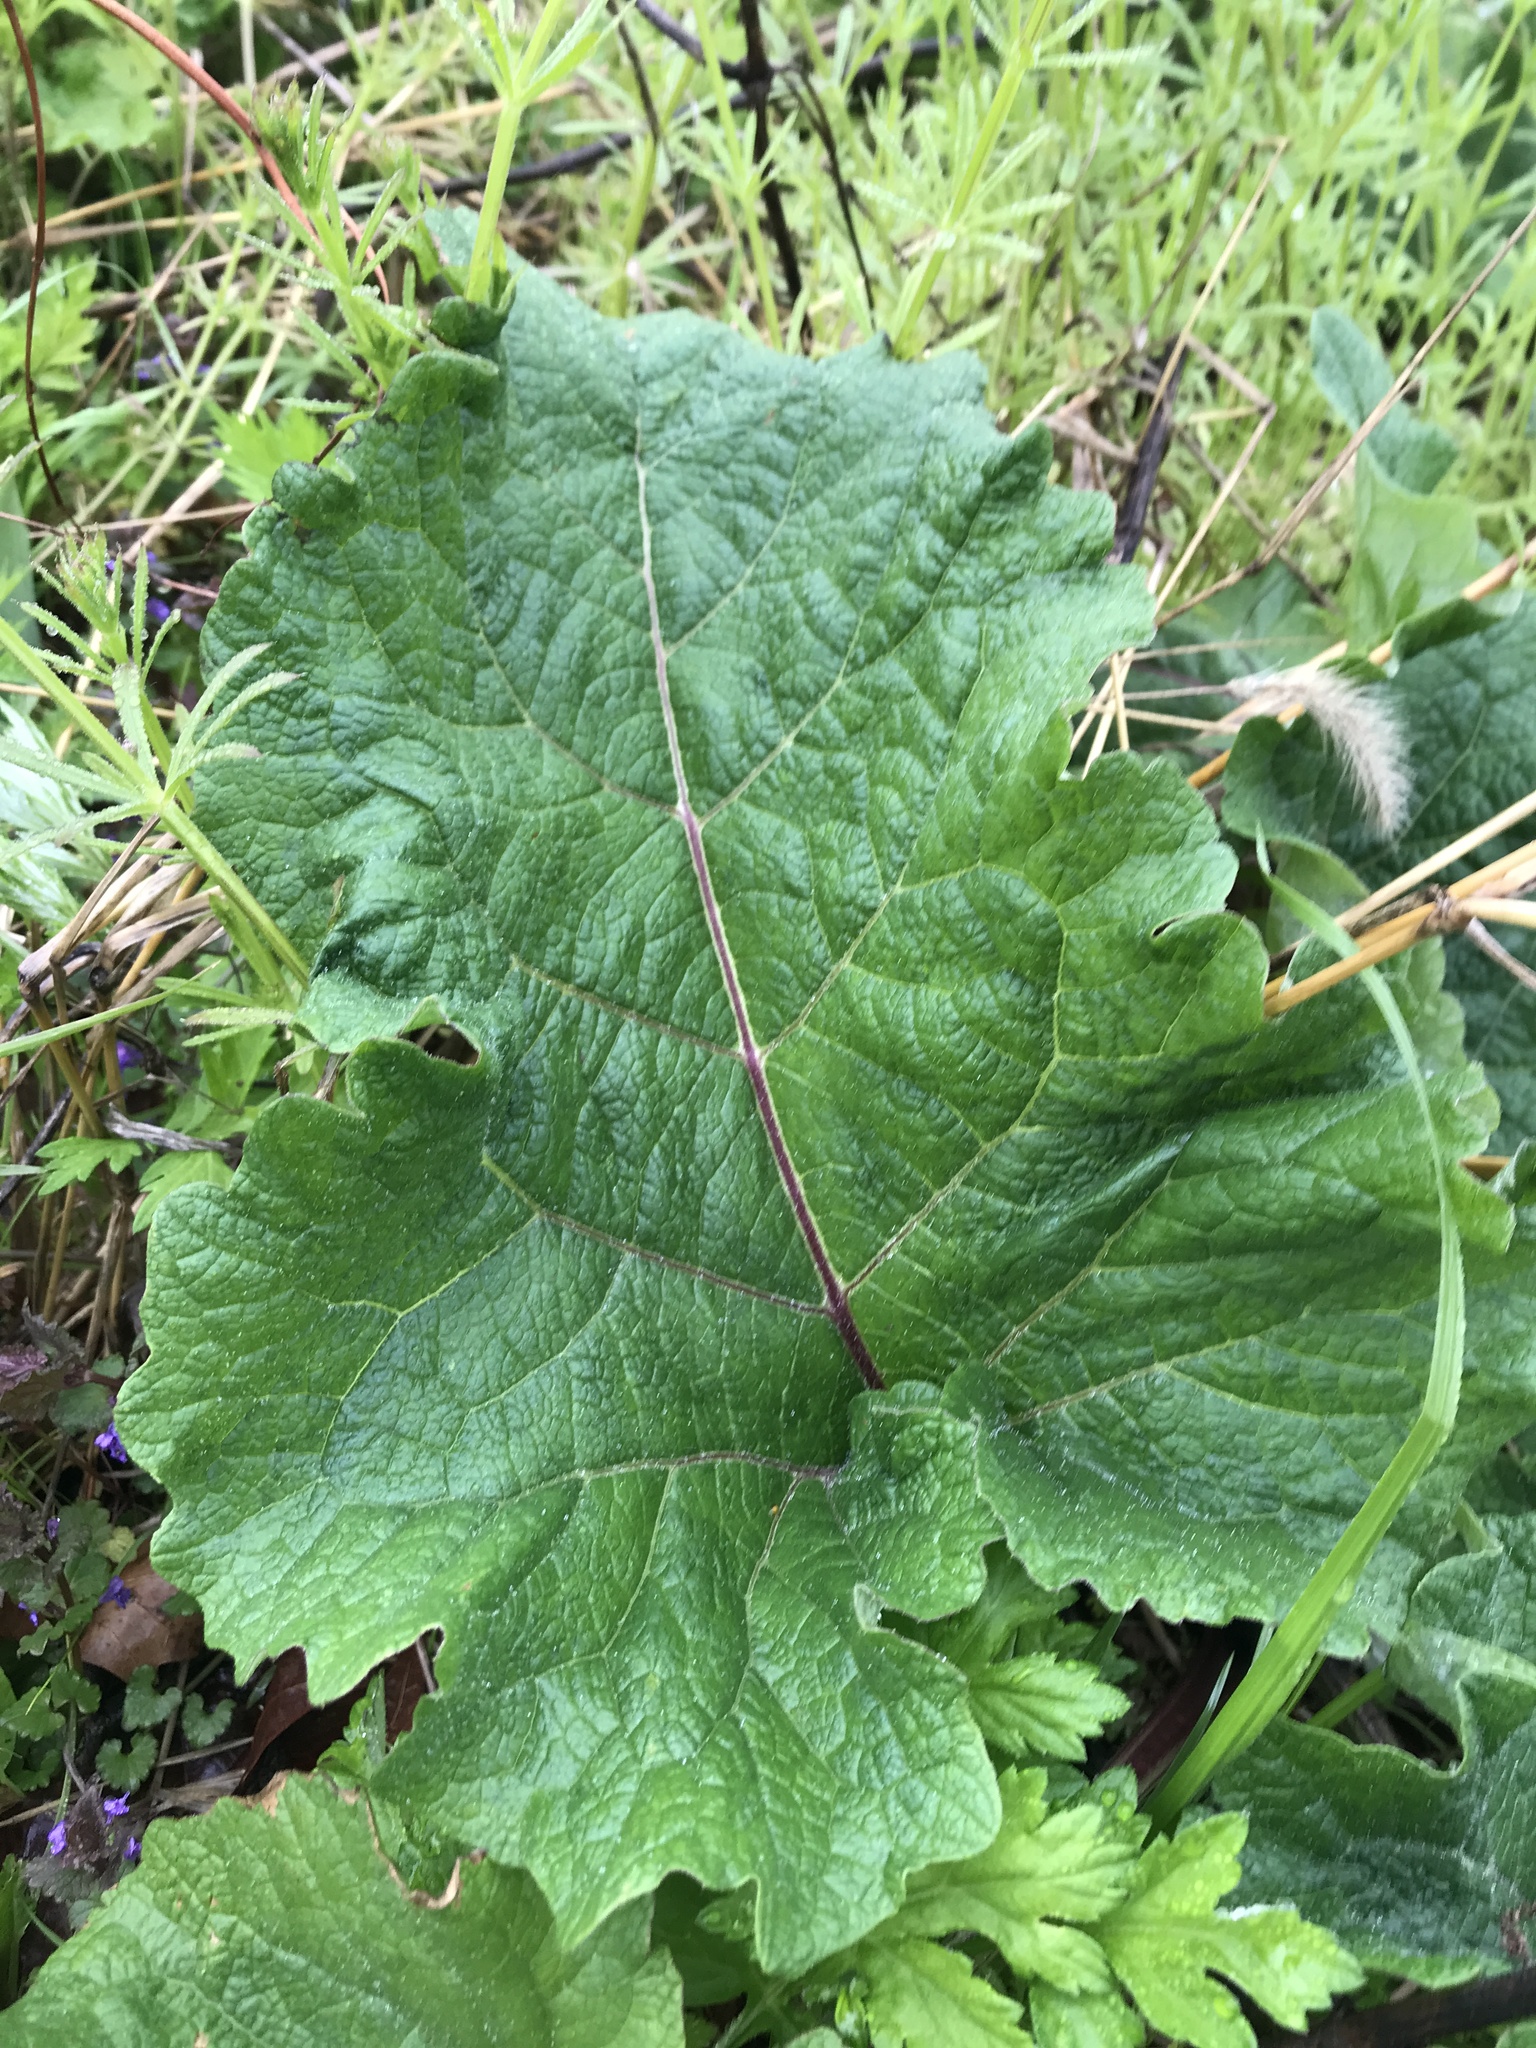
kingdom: Plantae
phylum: Tracheophyta
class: Magnoliopsida
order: Asterales
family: Asteraceae
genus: Arctium
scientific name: Arctium
